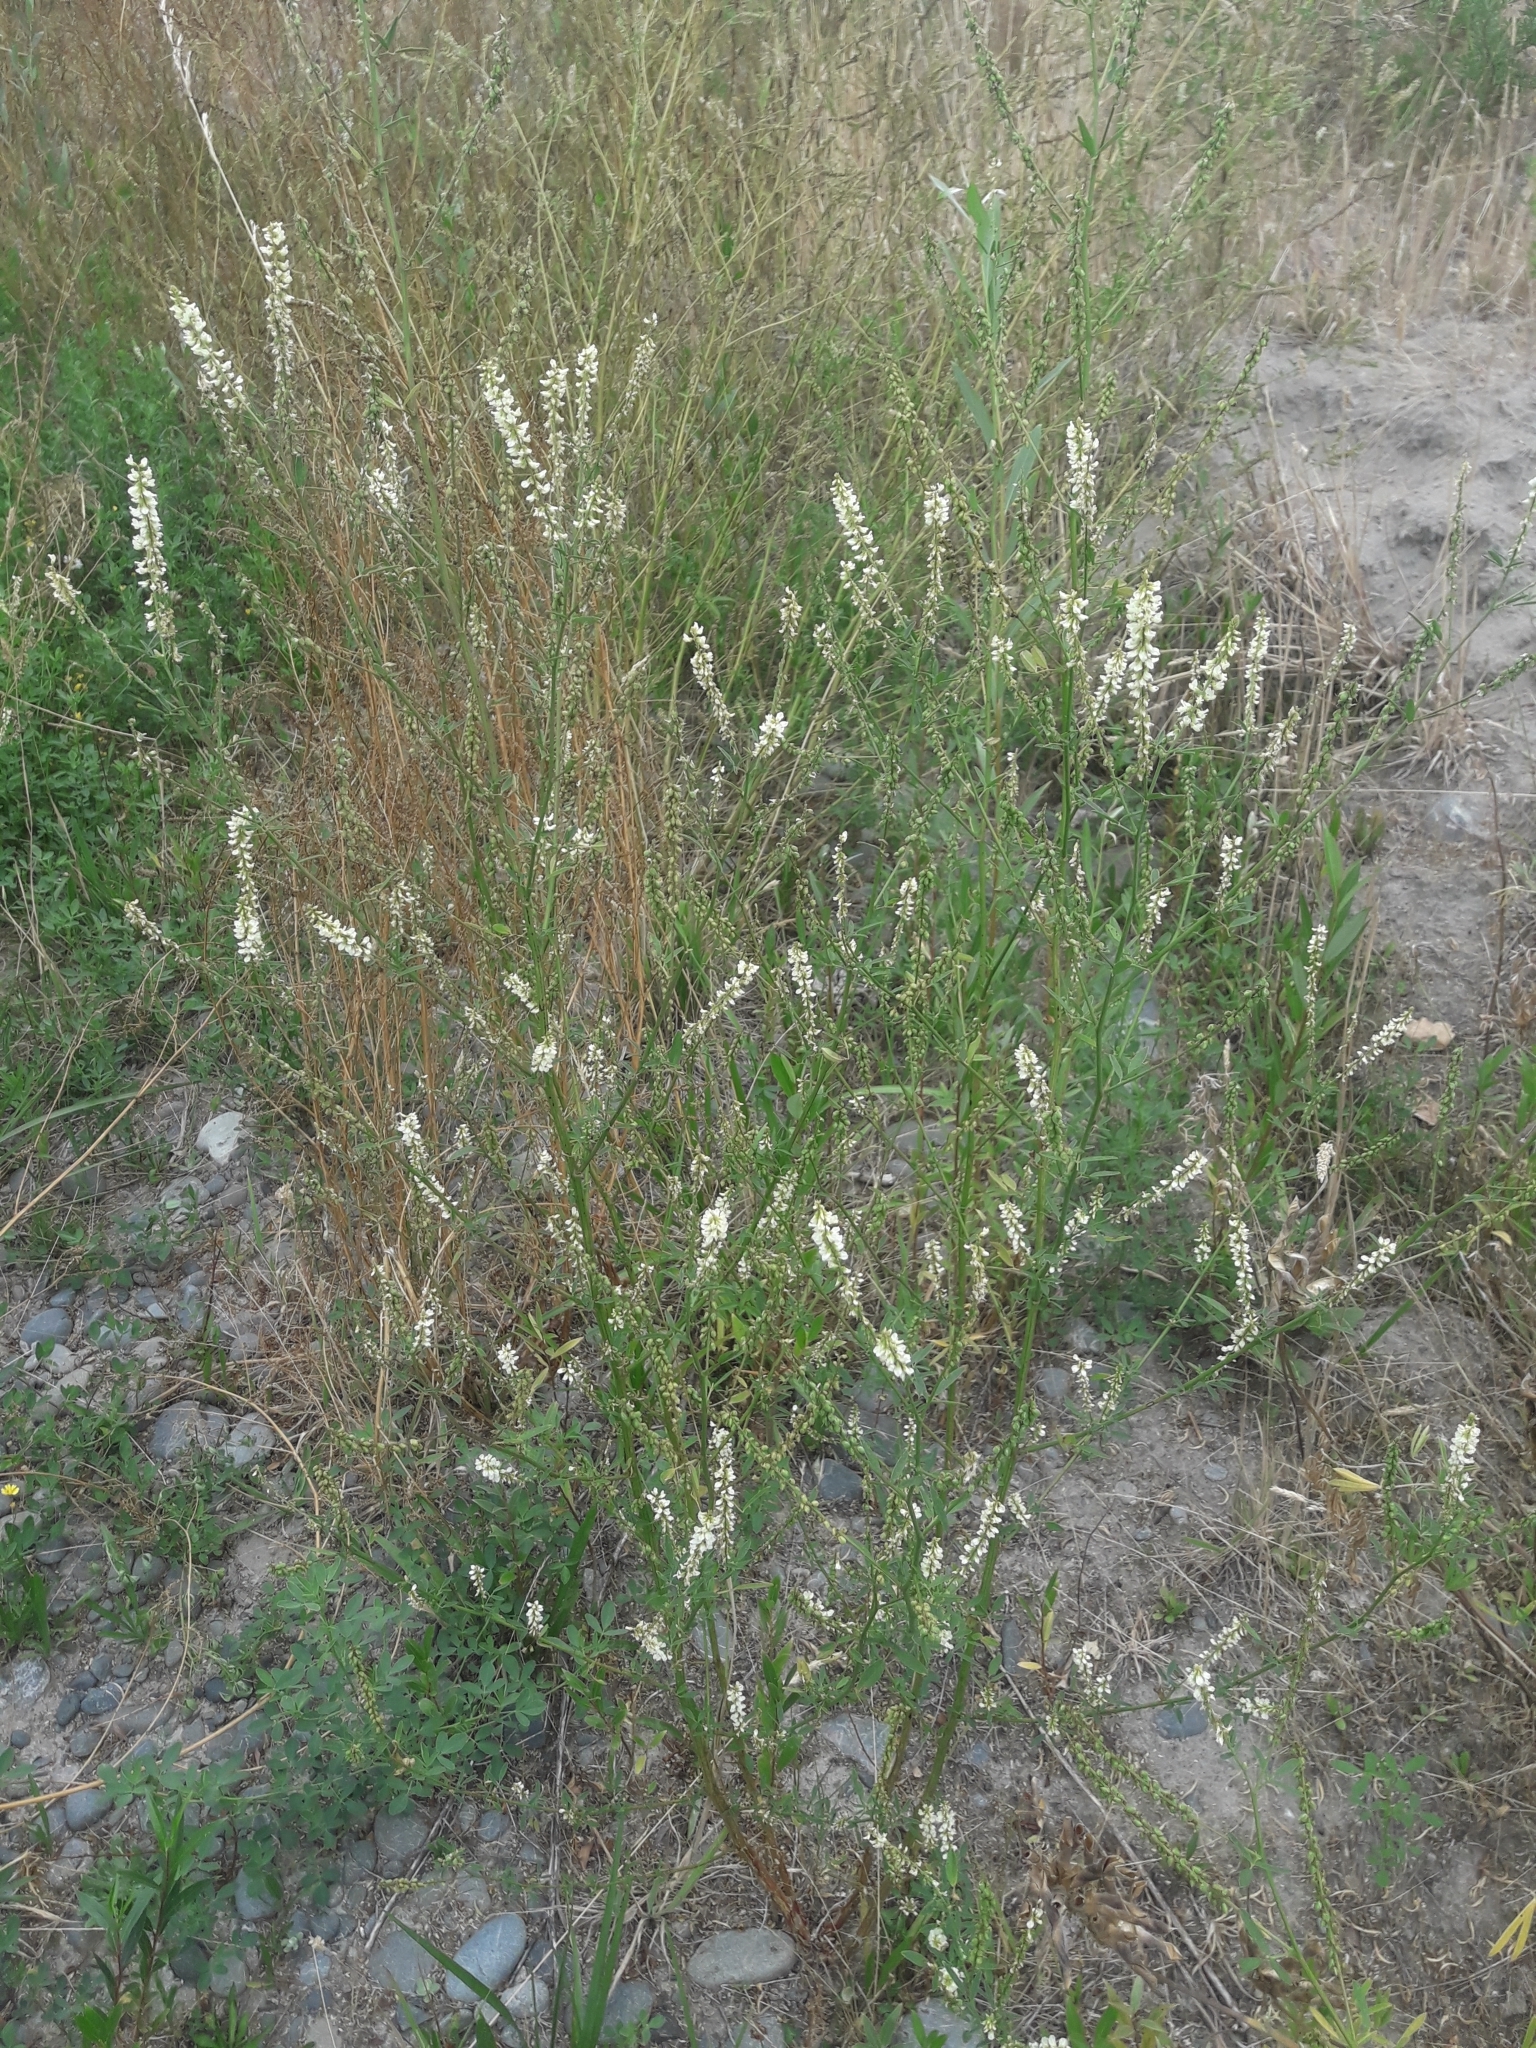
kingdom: Plantae
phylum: Tracheophyta
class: Magnoliopsida
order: Fabales
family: Fabaceae
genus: Melilotus
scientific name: Melilotus albus
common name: White melilot
